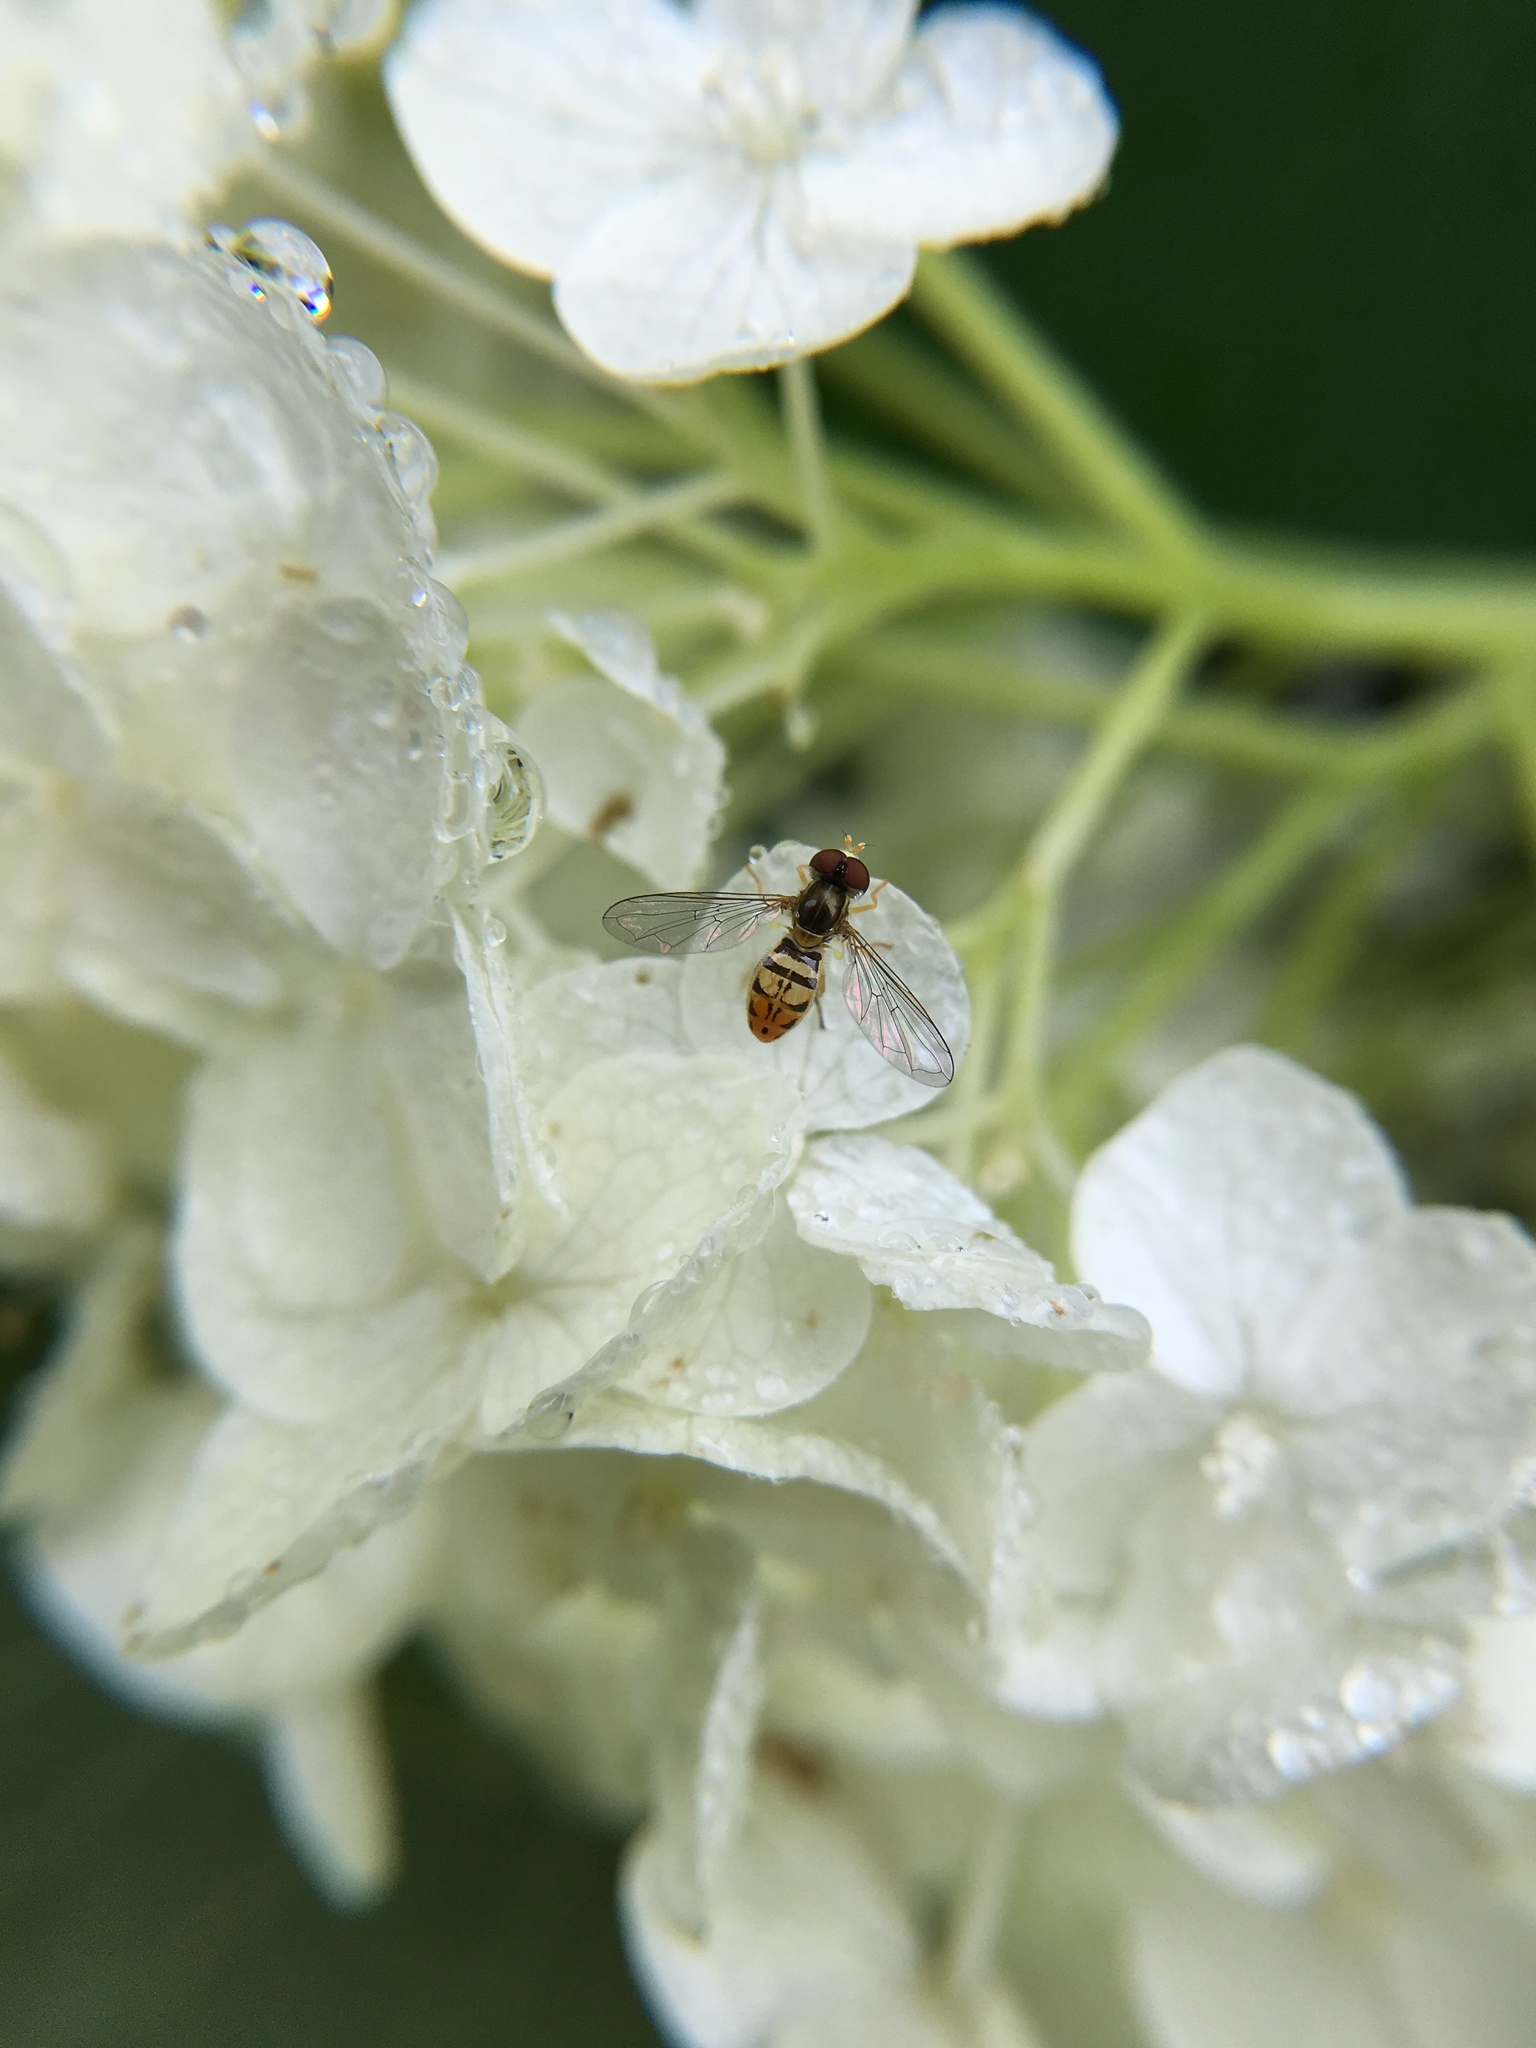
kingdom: Animalia
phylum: Arthropoda
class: Insecta
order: Diptera
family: Syrphidae
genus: Toxomerus
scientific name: Toxomerus marginatus
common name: Syrphid fly
